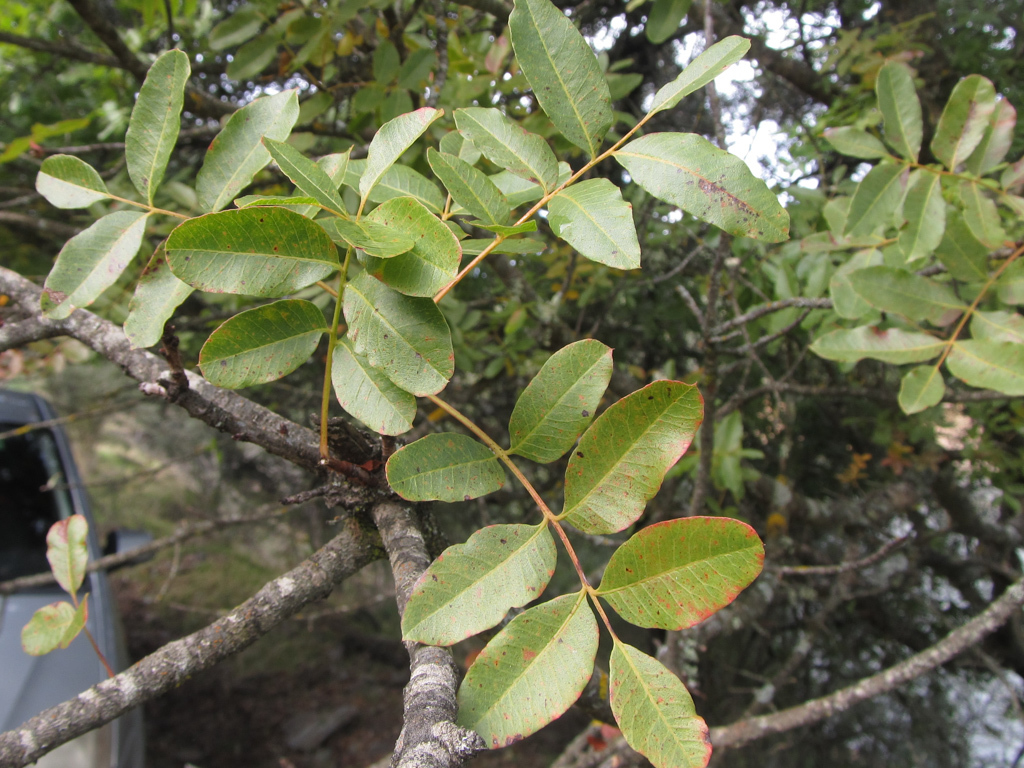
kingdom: Plantae
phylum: Tracheophyta
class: Magnoliopsida
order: Sapindales
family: Anacardiaceae
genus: Pistacia
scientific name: Pistacia terebinthus
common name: Terebinth
